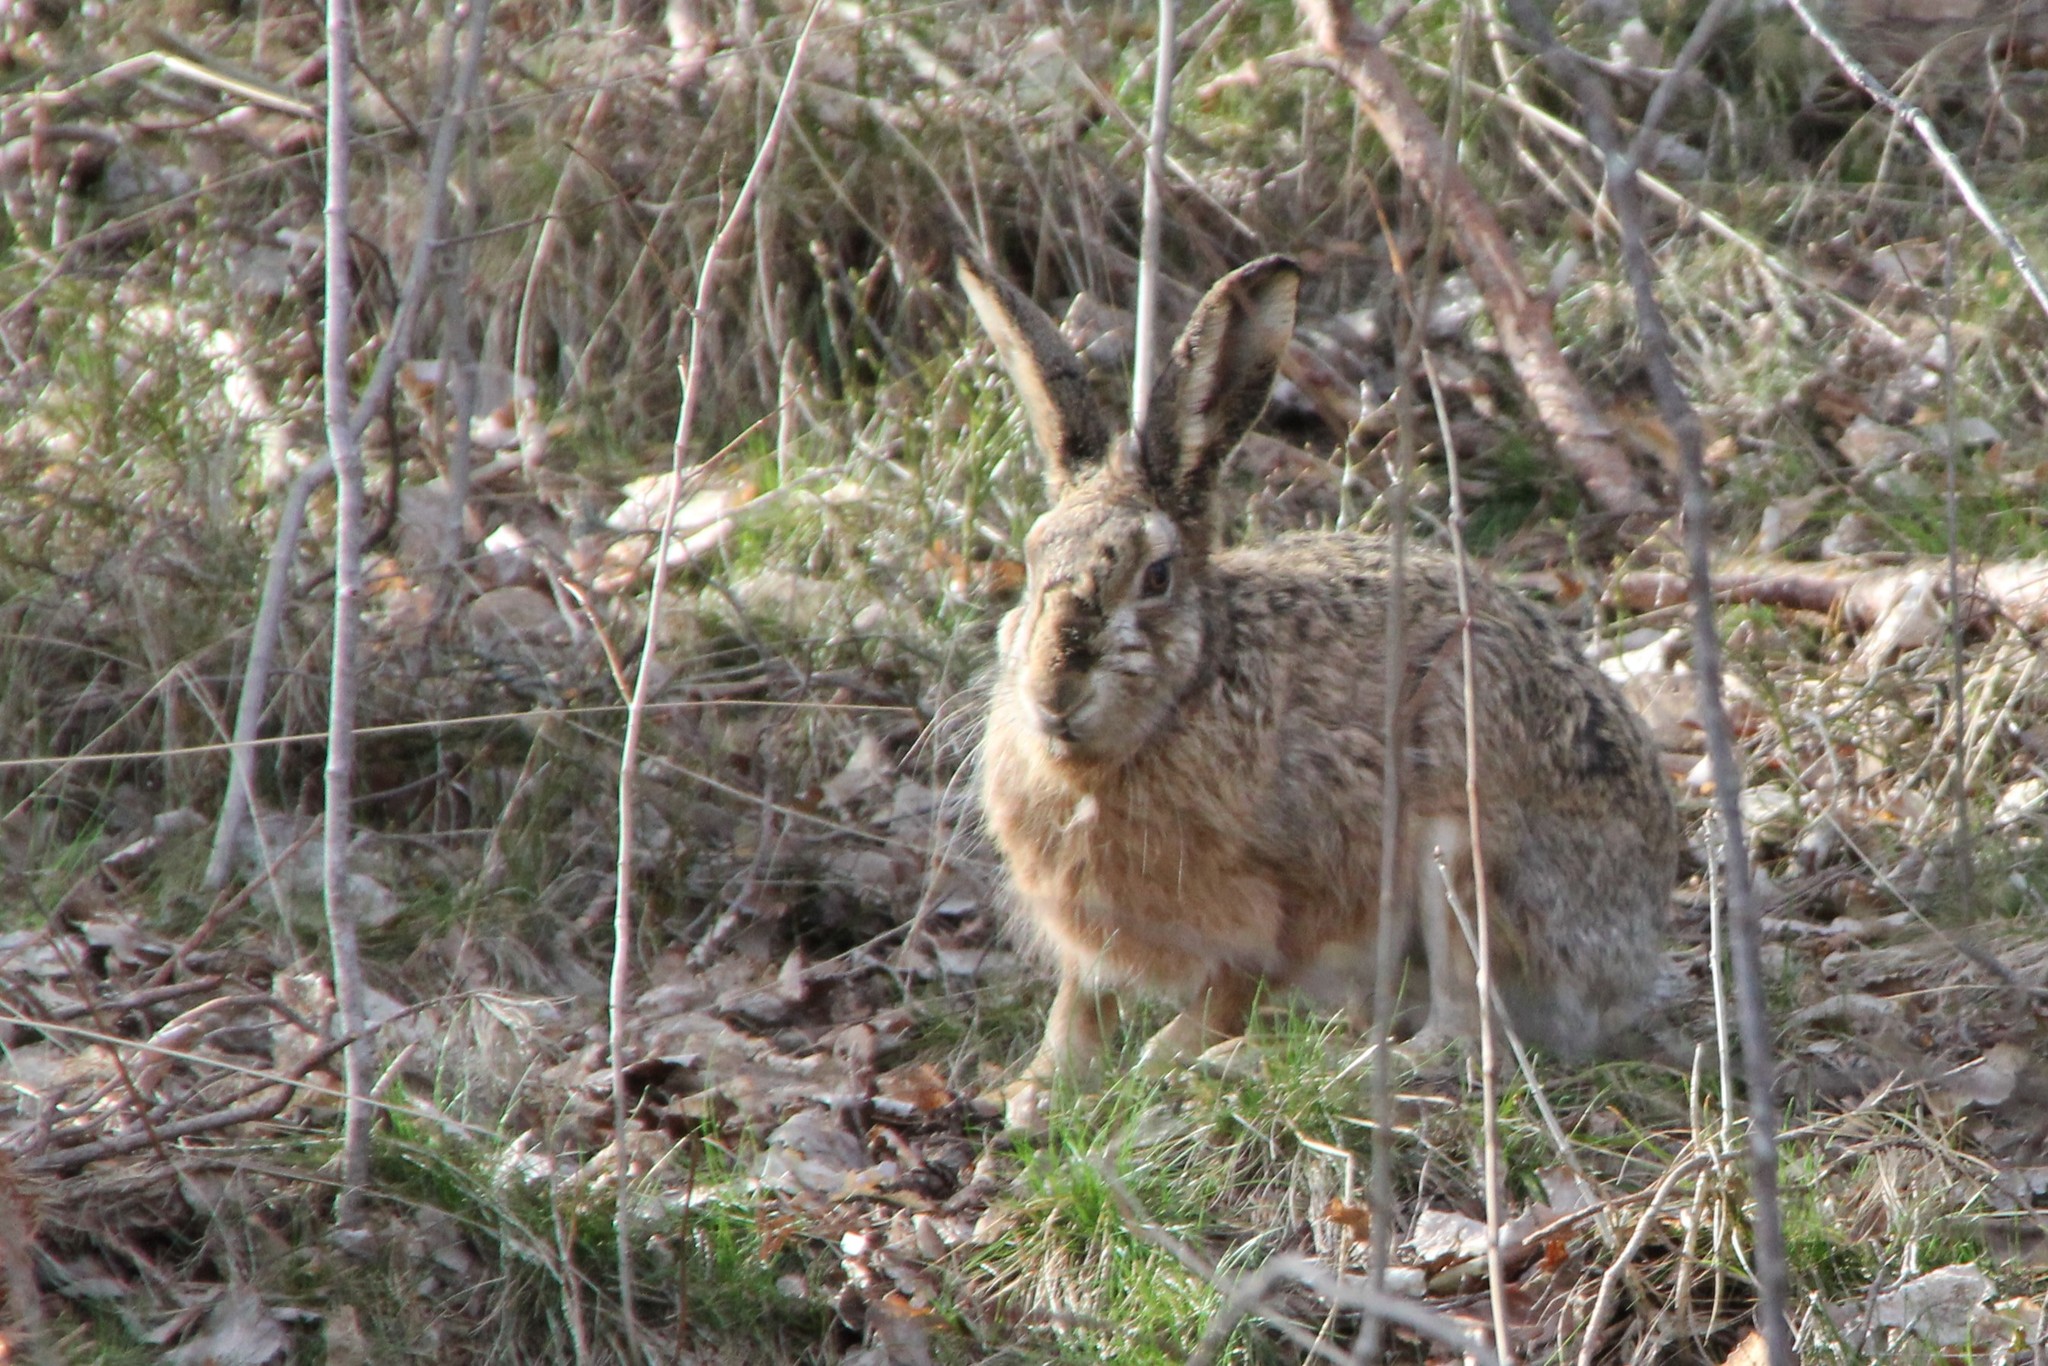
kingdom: Animalia
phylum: Chordata
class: Mammalia
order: Lagomorpha
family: Leporidae
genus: Lepus
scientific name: Lepus europaeus
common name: European hare
